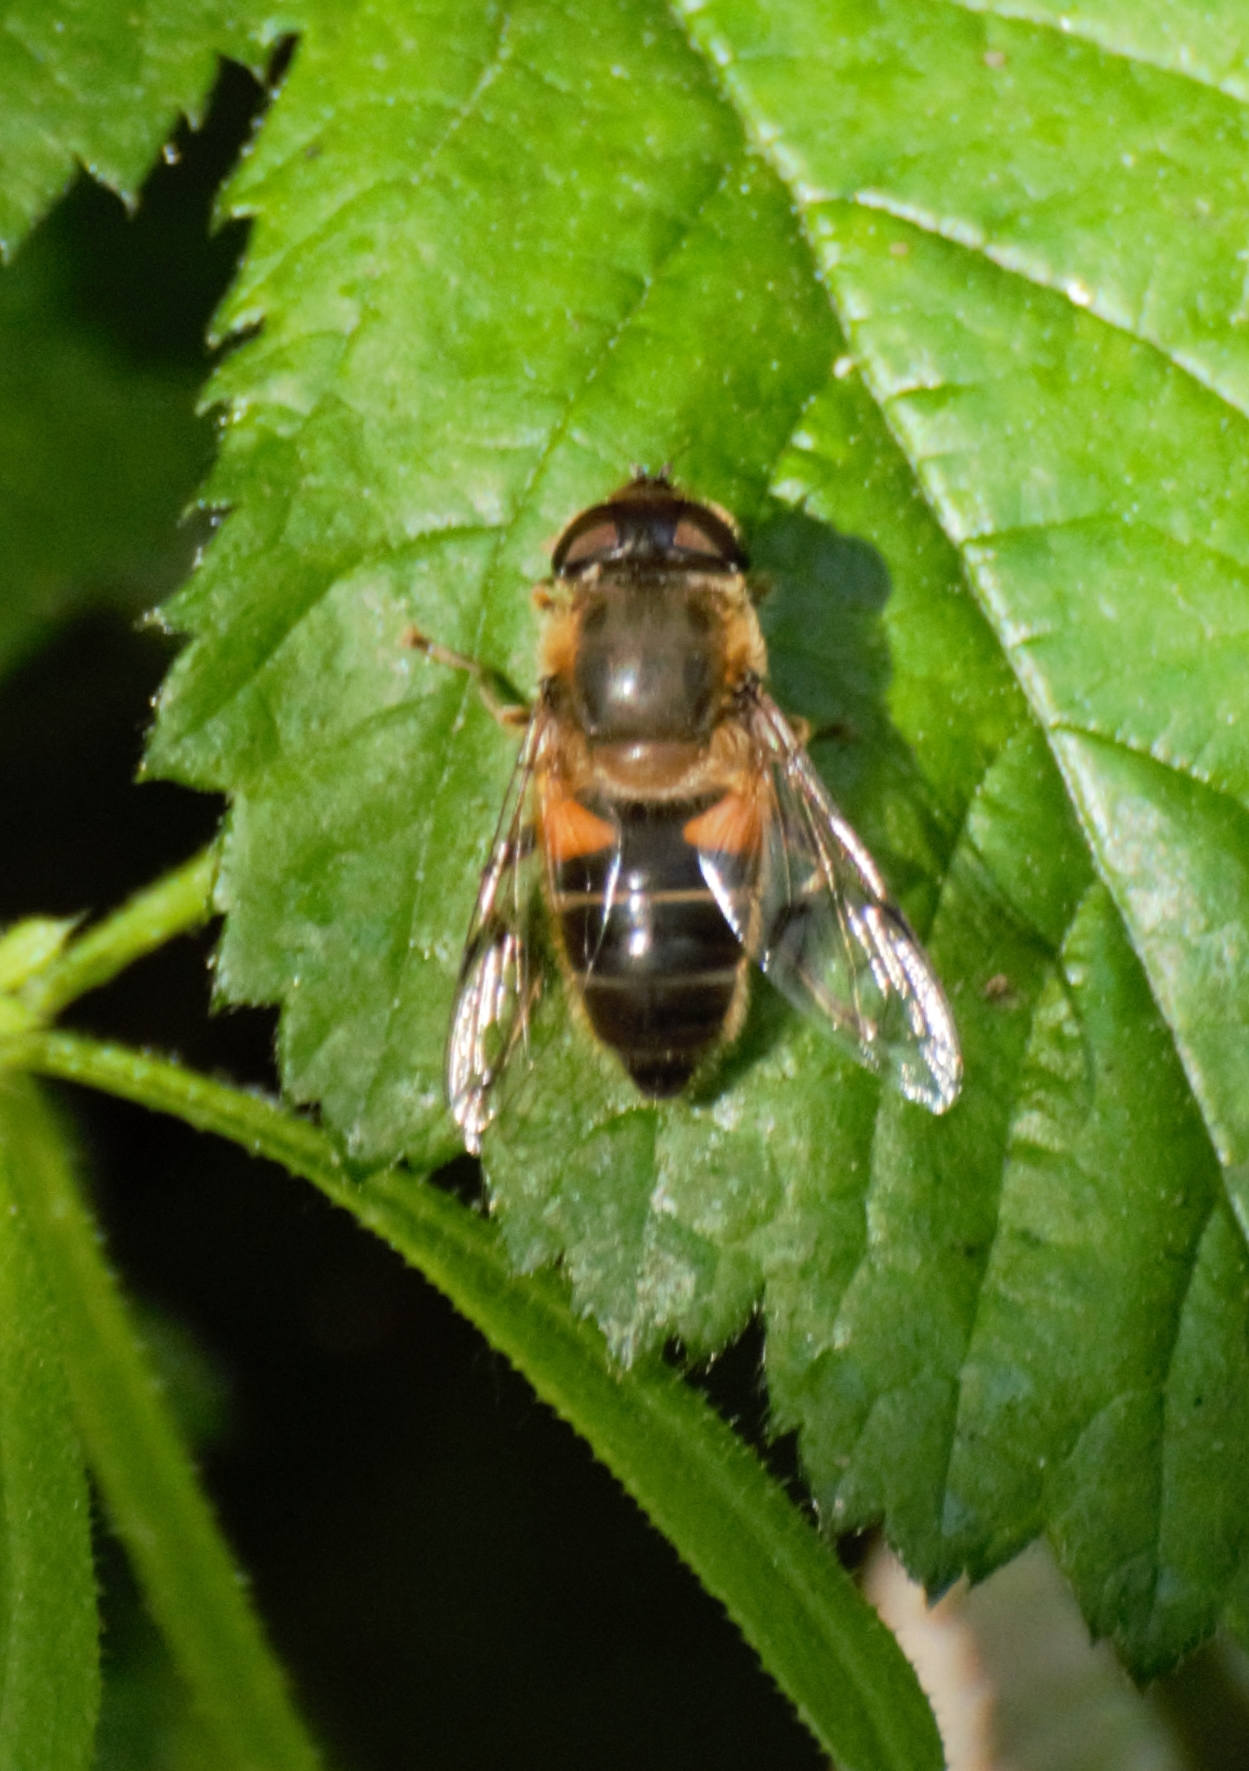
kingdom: Animalia
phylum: Arthropoda
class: Insecta
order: Diptera
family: Syrphidae
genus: Eristalis
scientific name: Eristalis pertinax
